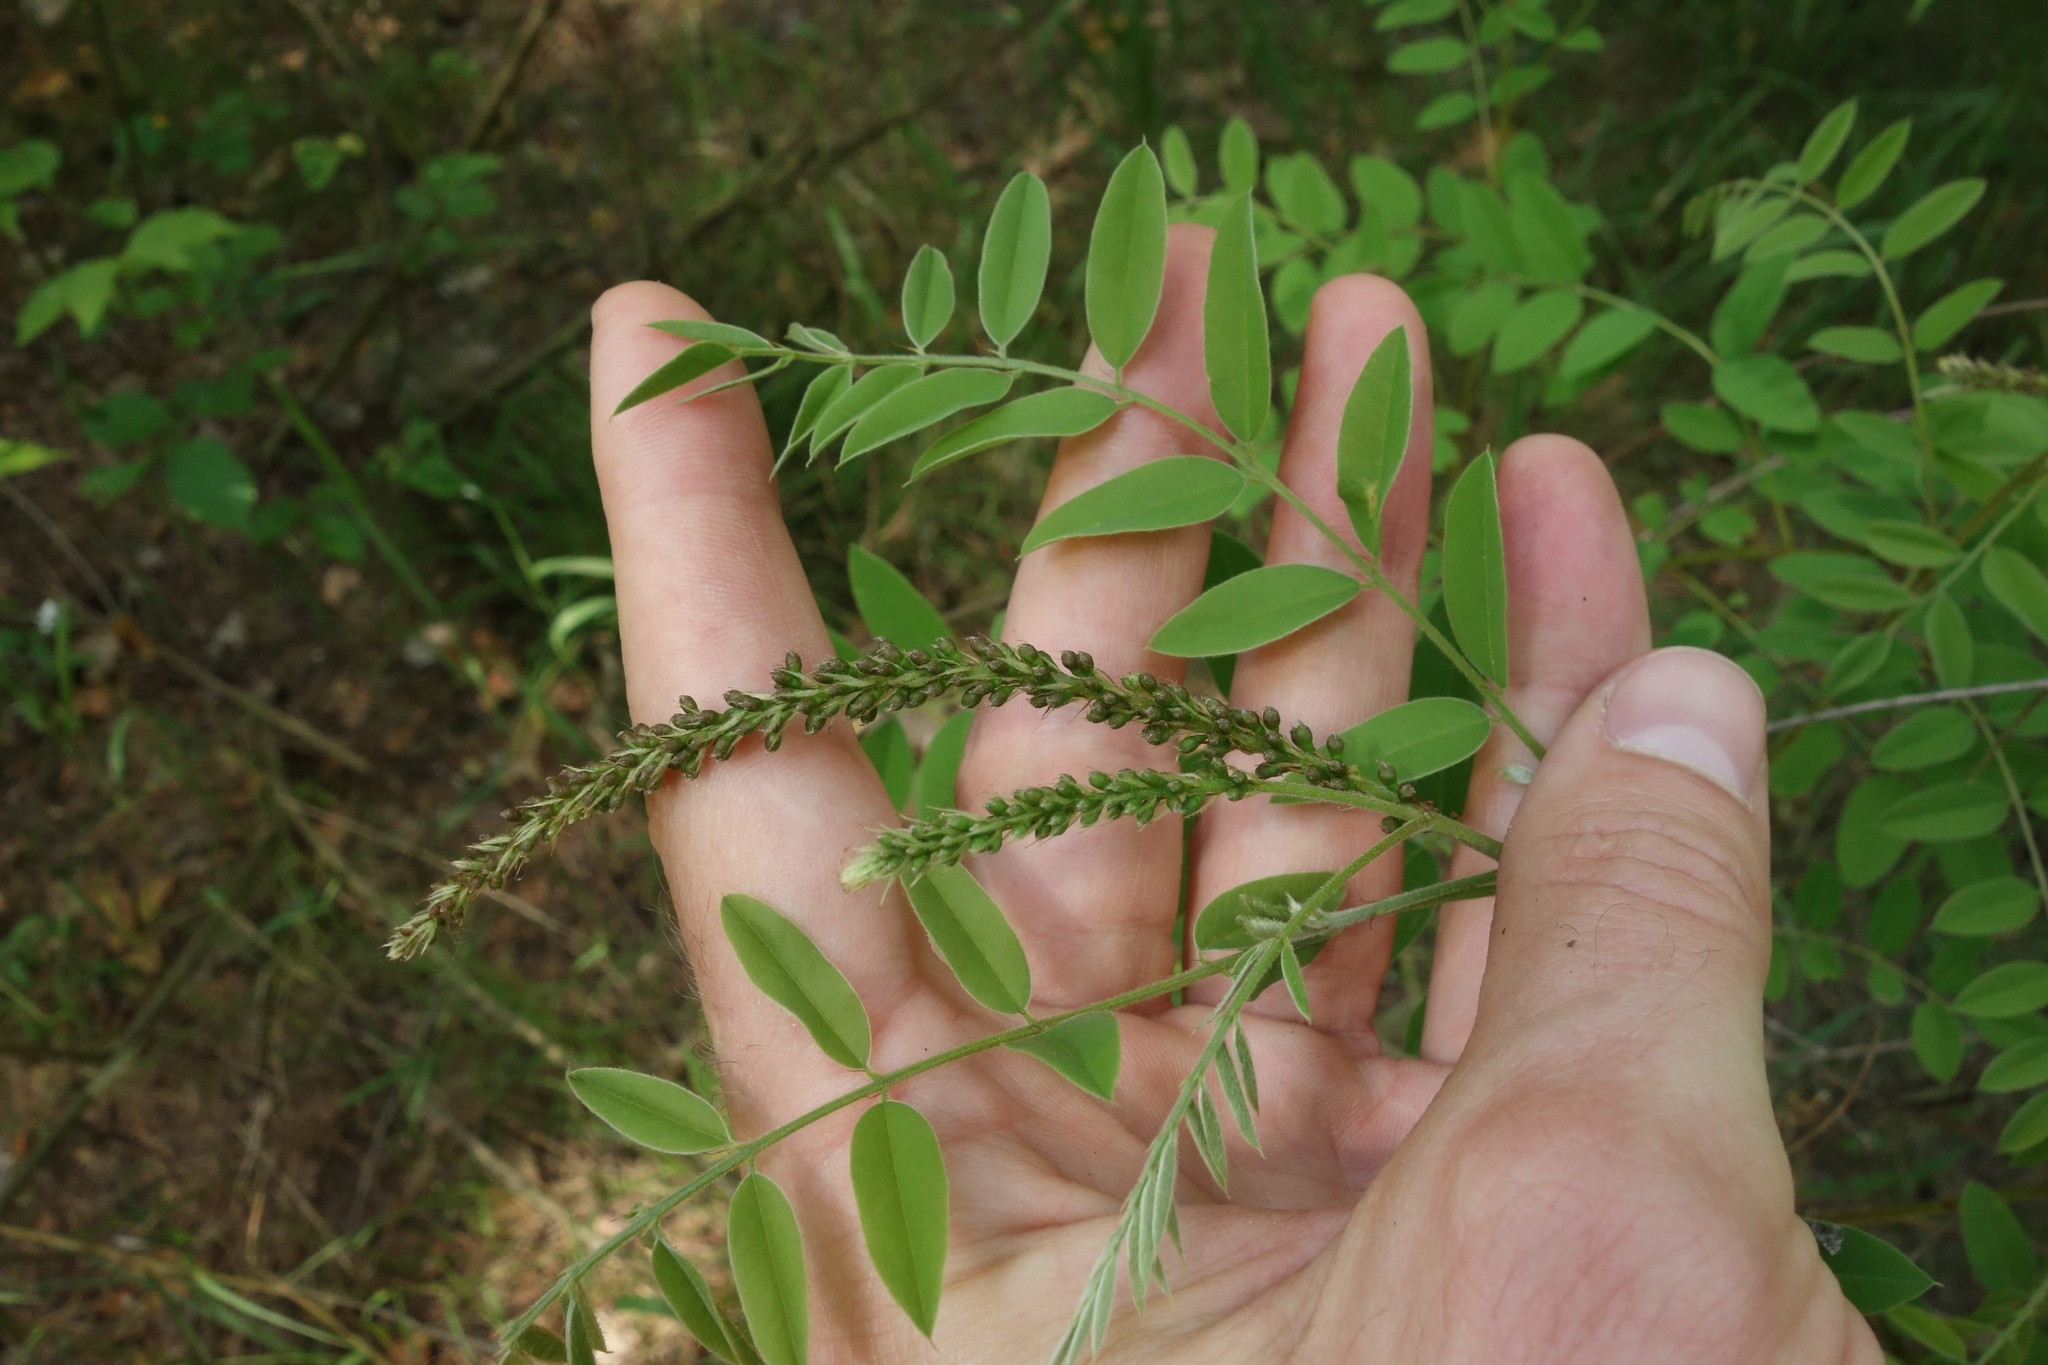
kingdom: Plantae
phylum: Tracheophyta
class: Magnoliopsida
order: Fabales
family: Fabaceae
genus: Amorpha
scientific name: Amorpha fruticosa
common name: False indigo
